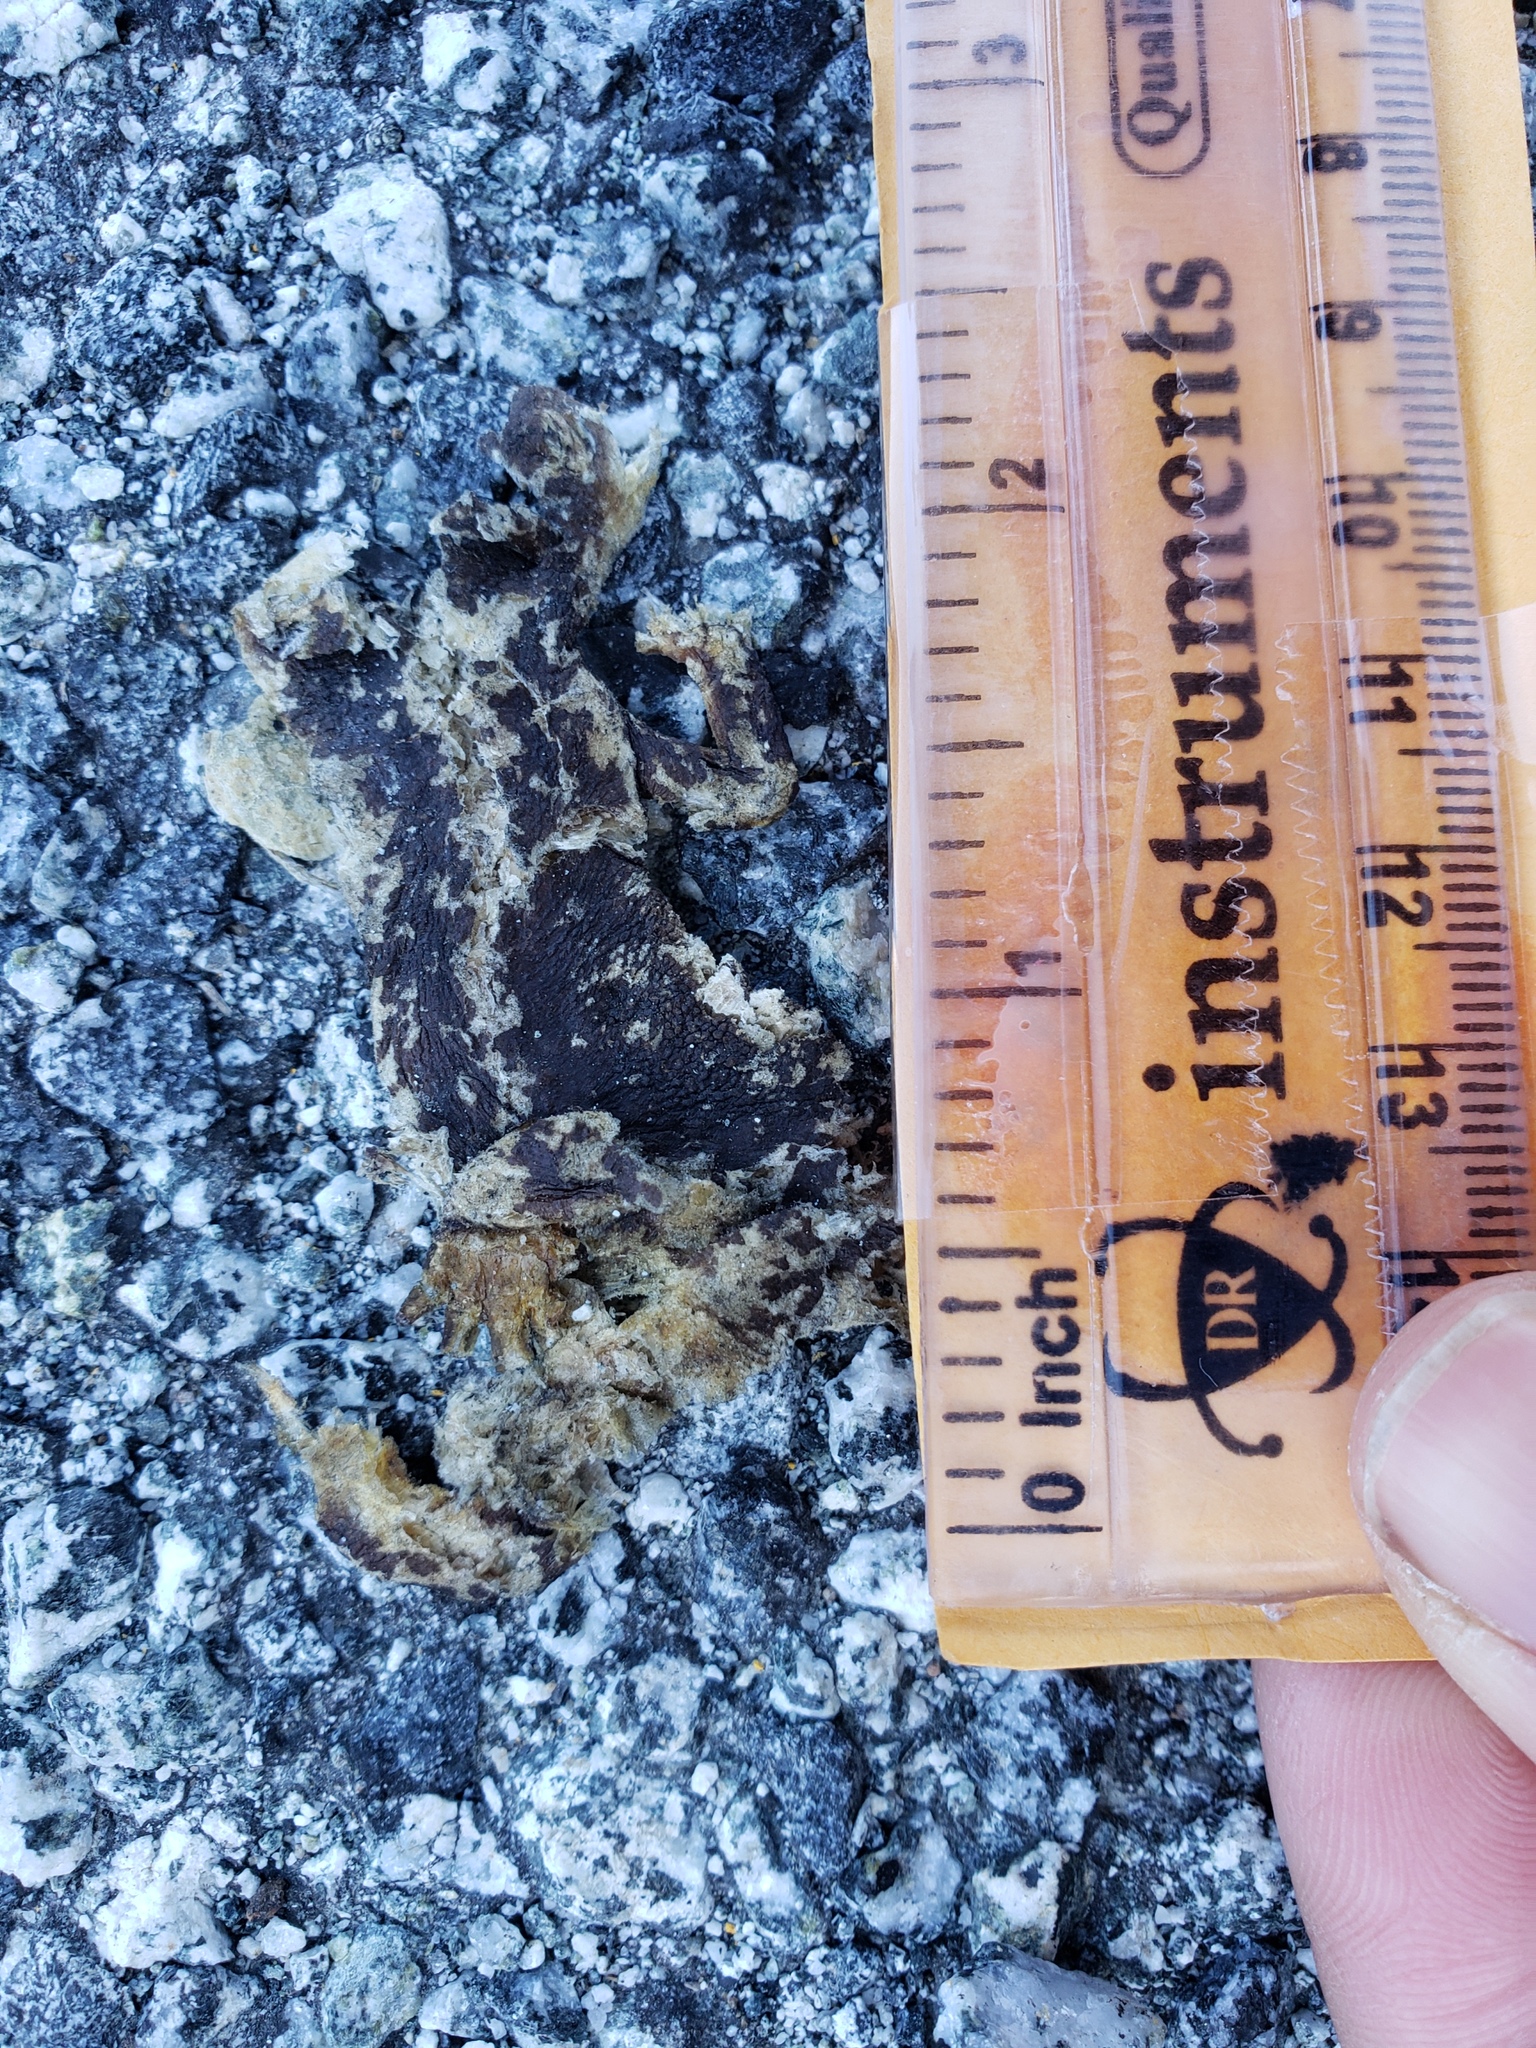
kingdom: Animalia
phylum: Chordata
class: Amphibia
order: Caudata
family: Salamandridae
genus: Taricha
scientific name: Taricha
